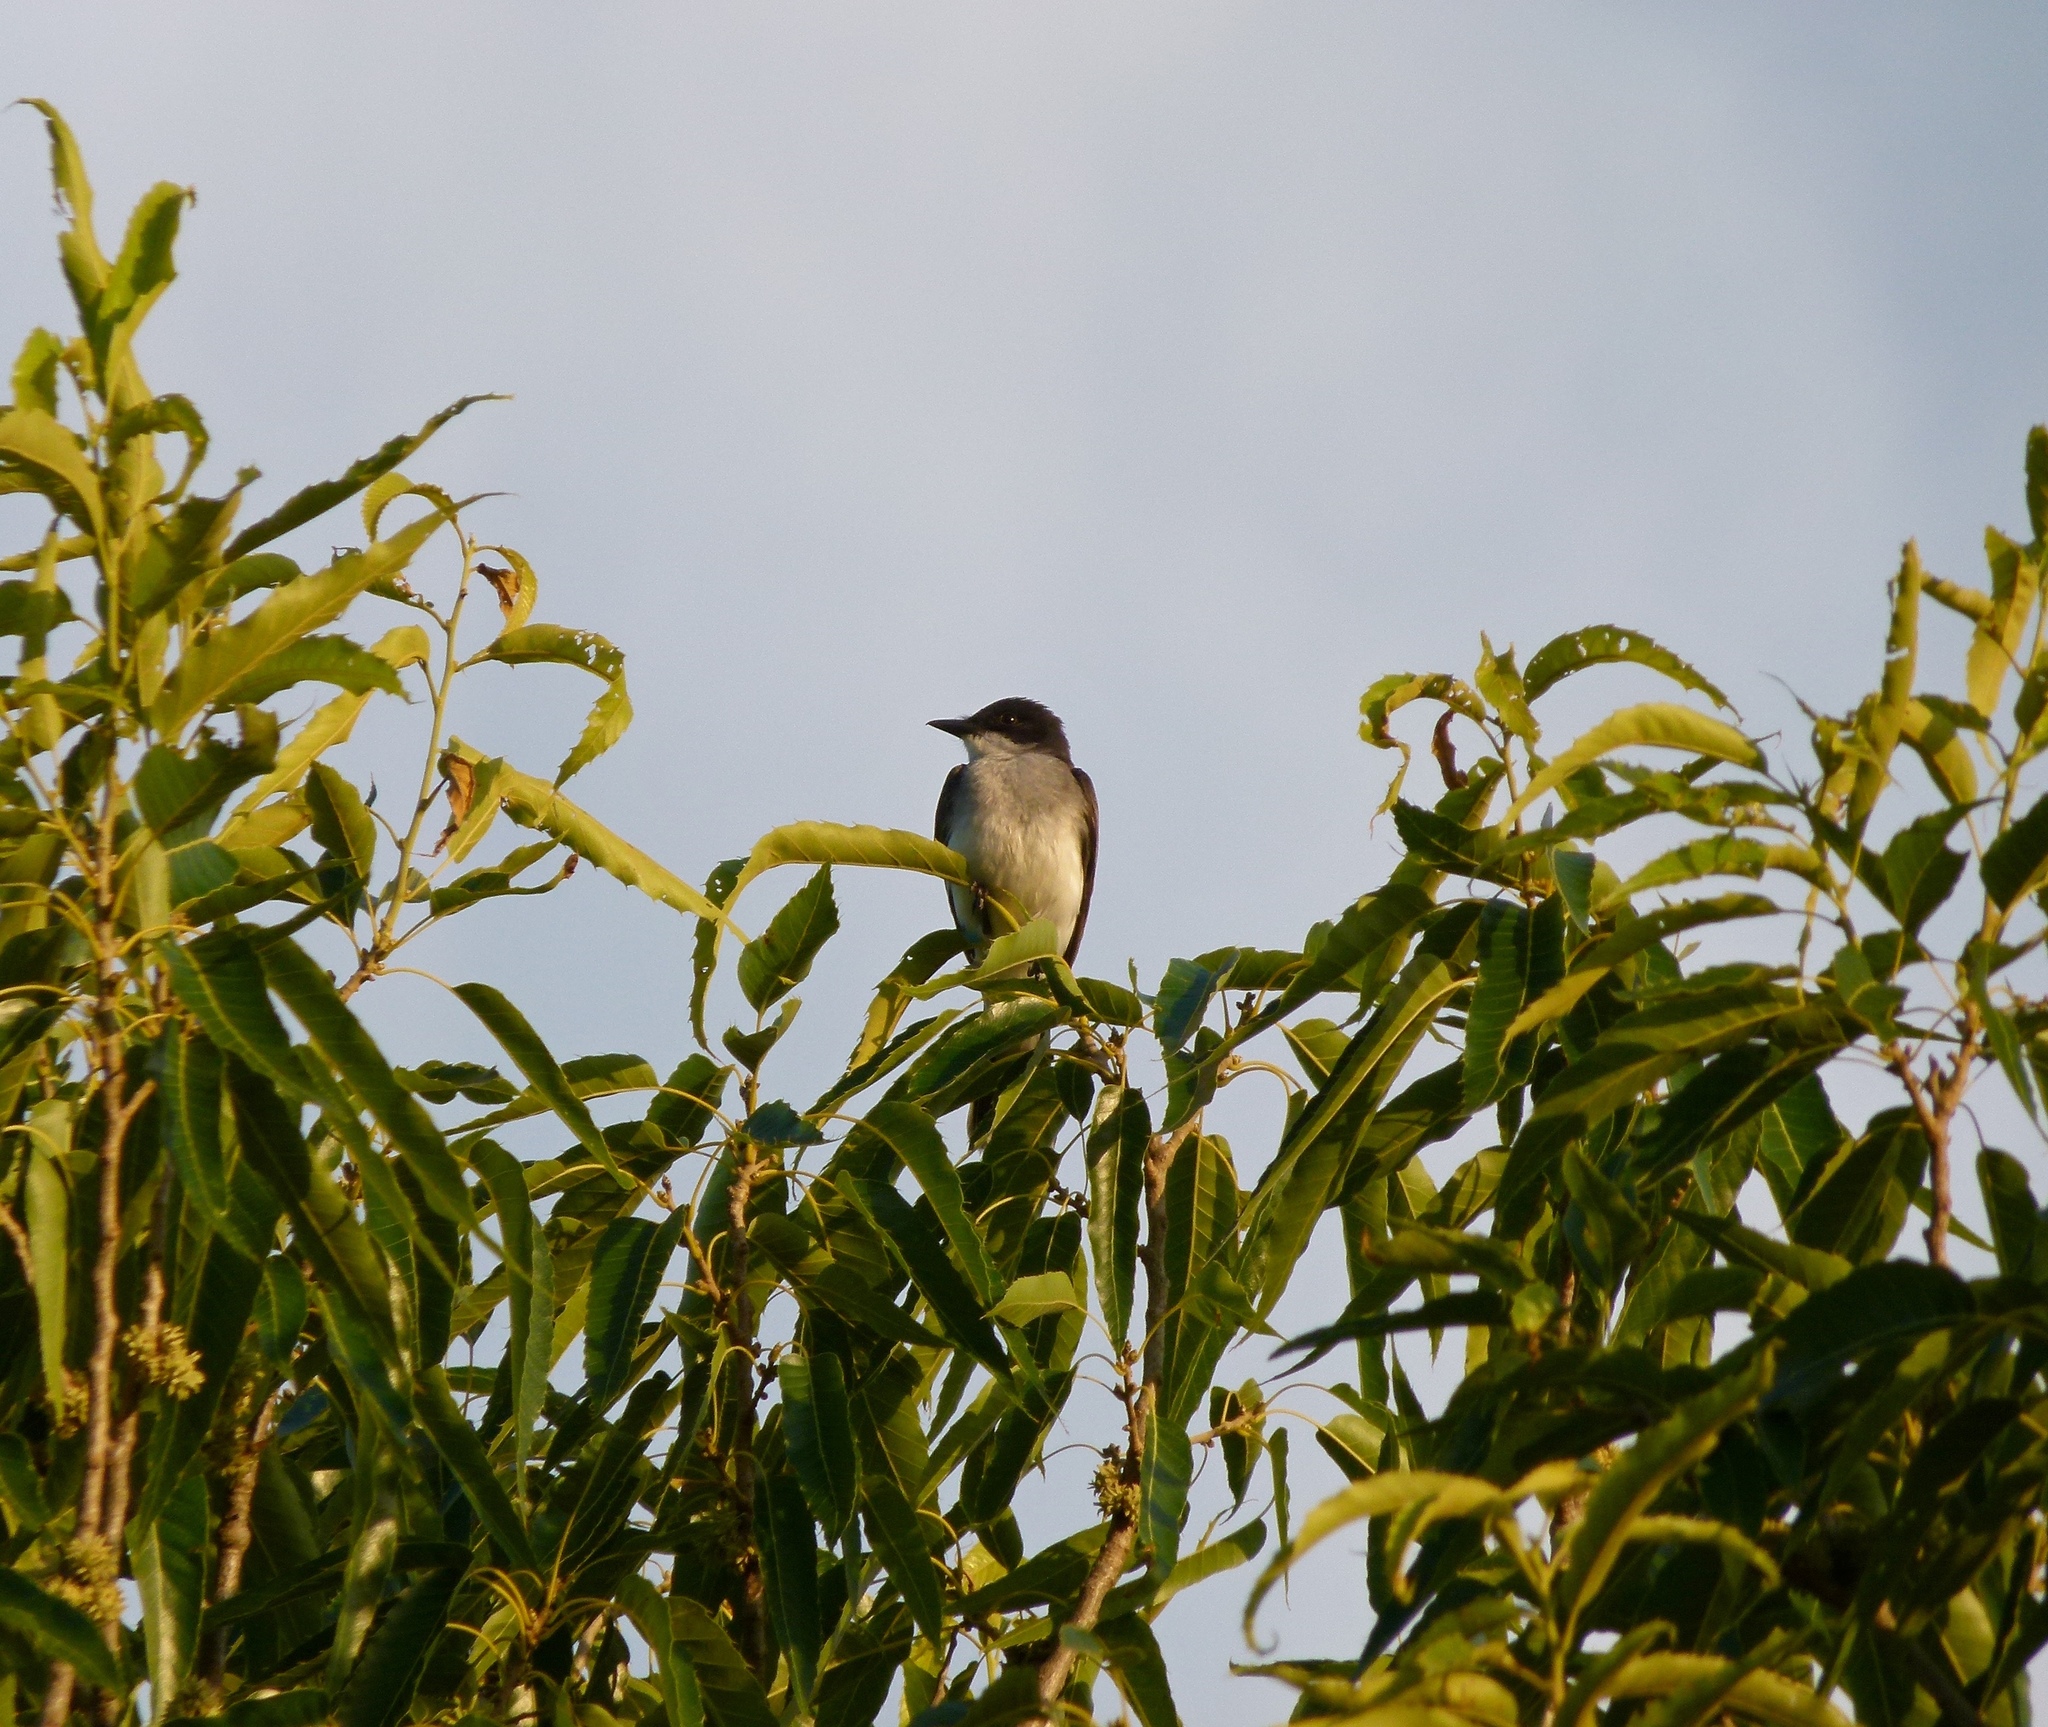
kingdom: Animalia
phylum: Chordata
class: Aves
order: Passeriformes
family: Tyrannidae
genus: Tyrannus
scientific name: Tyrannus tyrannus
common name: Eastern kingbird
